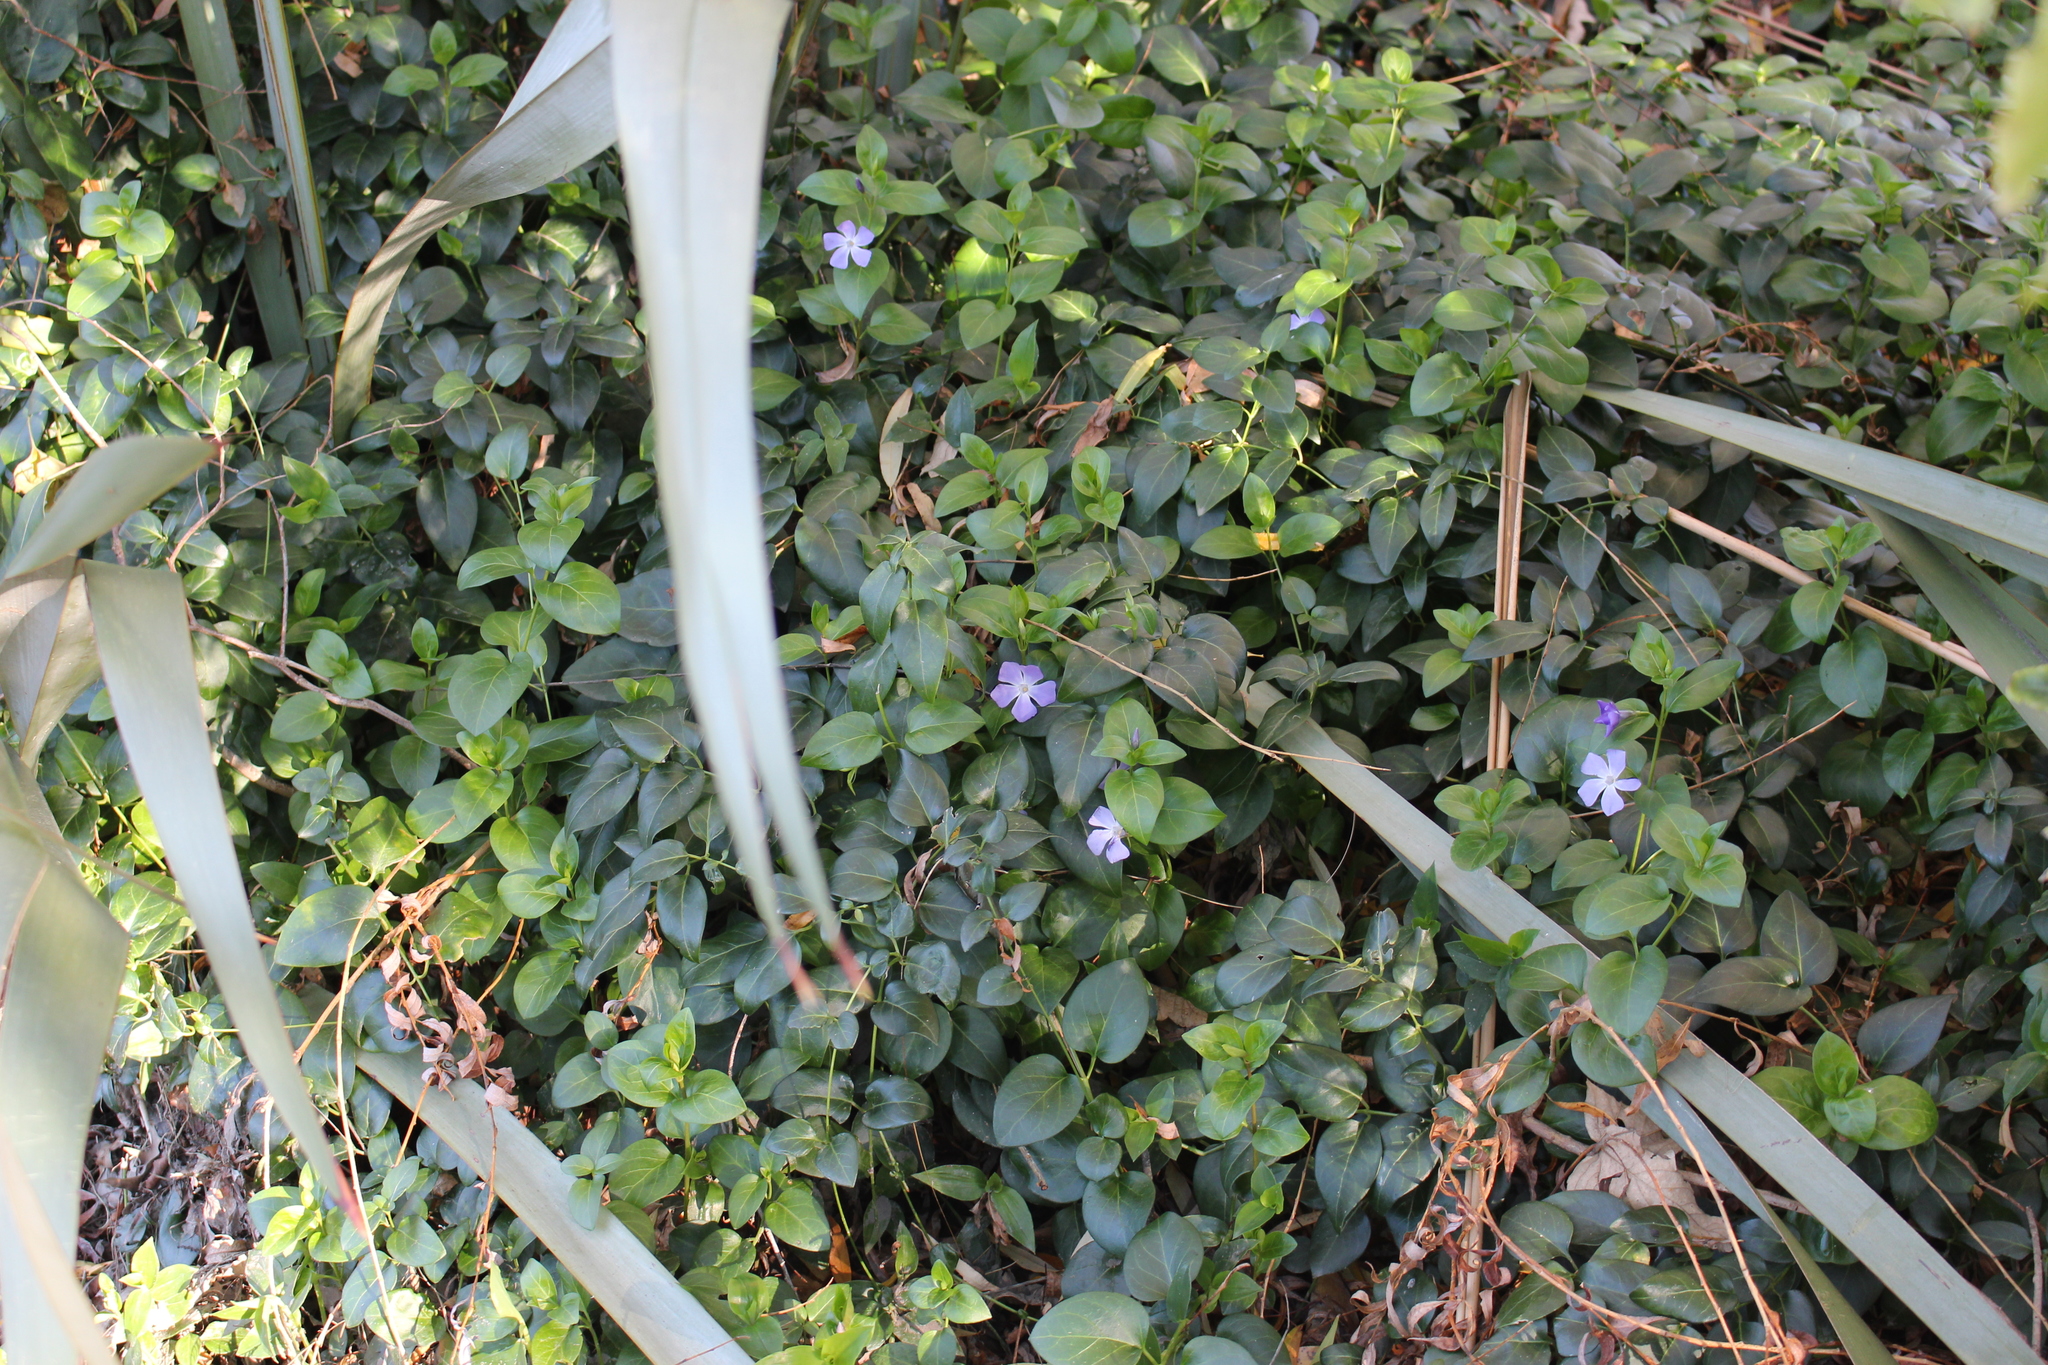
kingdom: Plantae
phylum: Tracheophyta
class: Magnoliopsida
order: Gentianales
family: Apocynaceae
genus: Vinca
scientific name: Vinca major
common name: Greater periwinkle
